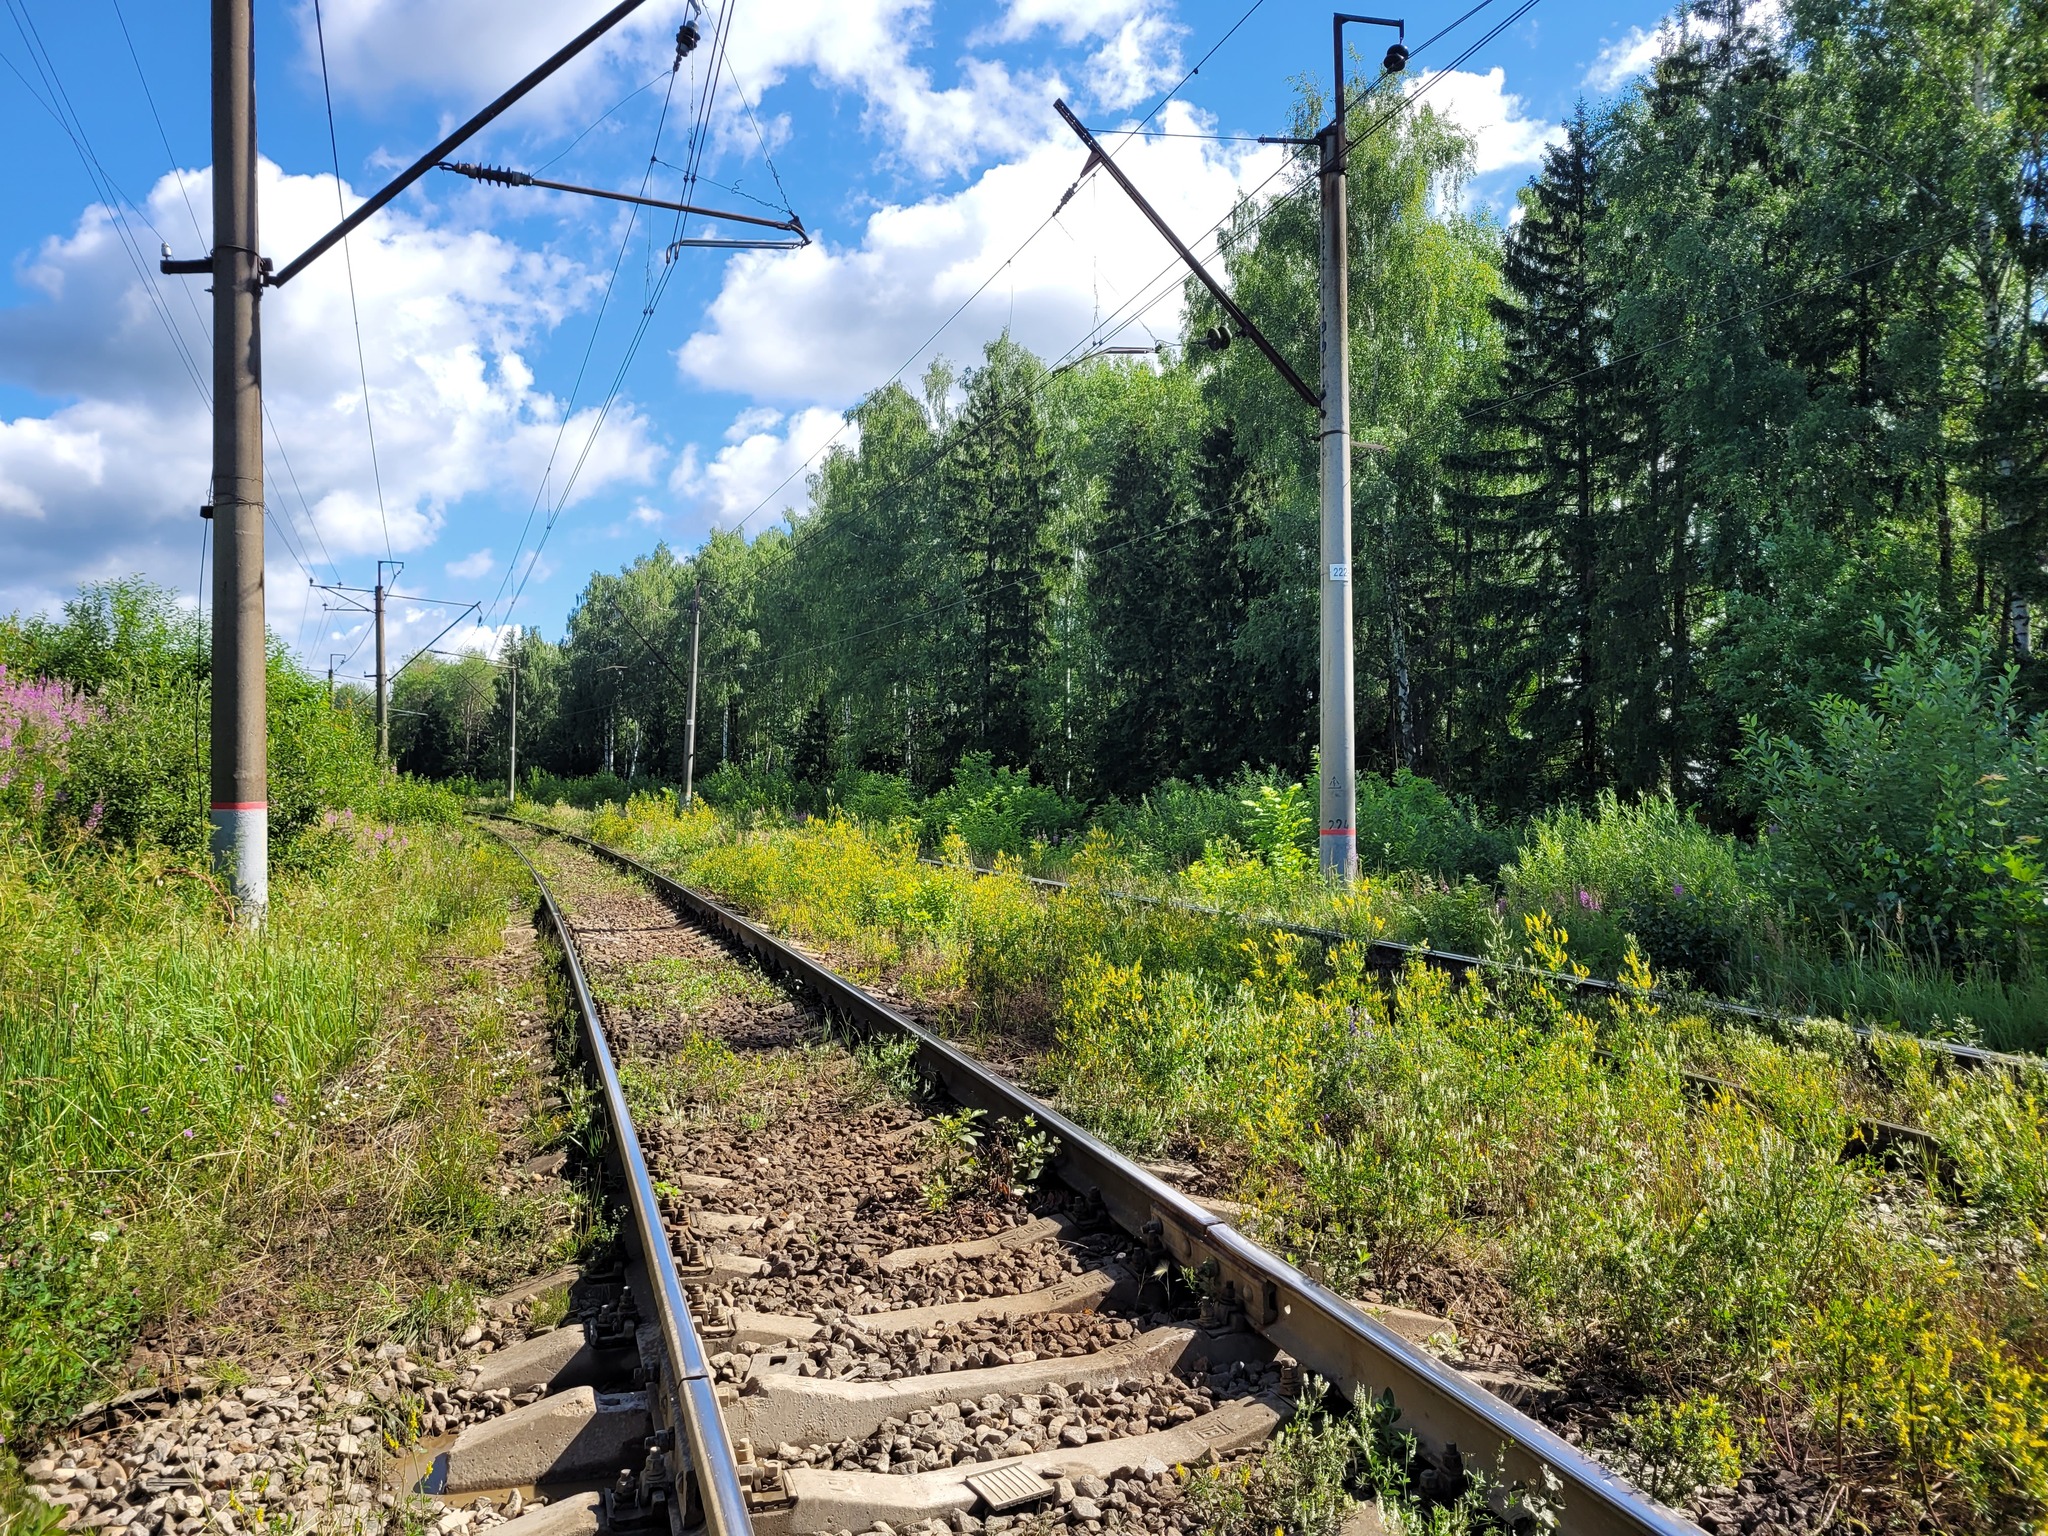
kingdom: Plantae
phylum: Tracheophyta
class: Magnoliopsida
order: Fabales
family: Fabaceae
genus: Melilotus
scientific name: Melilotus officinalis
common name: Sweetclover
